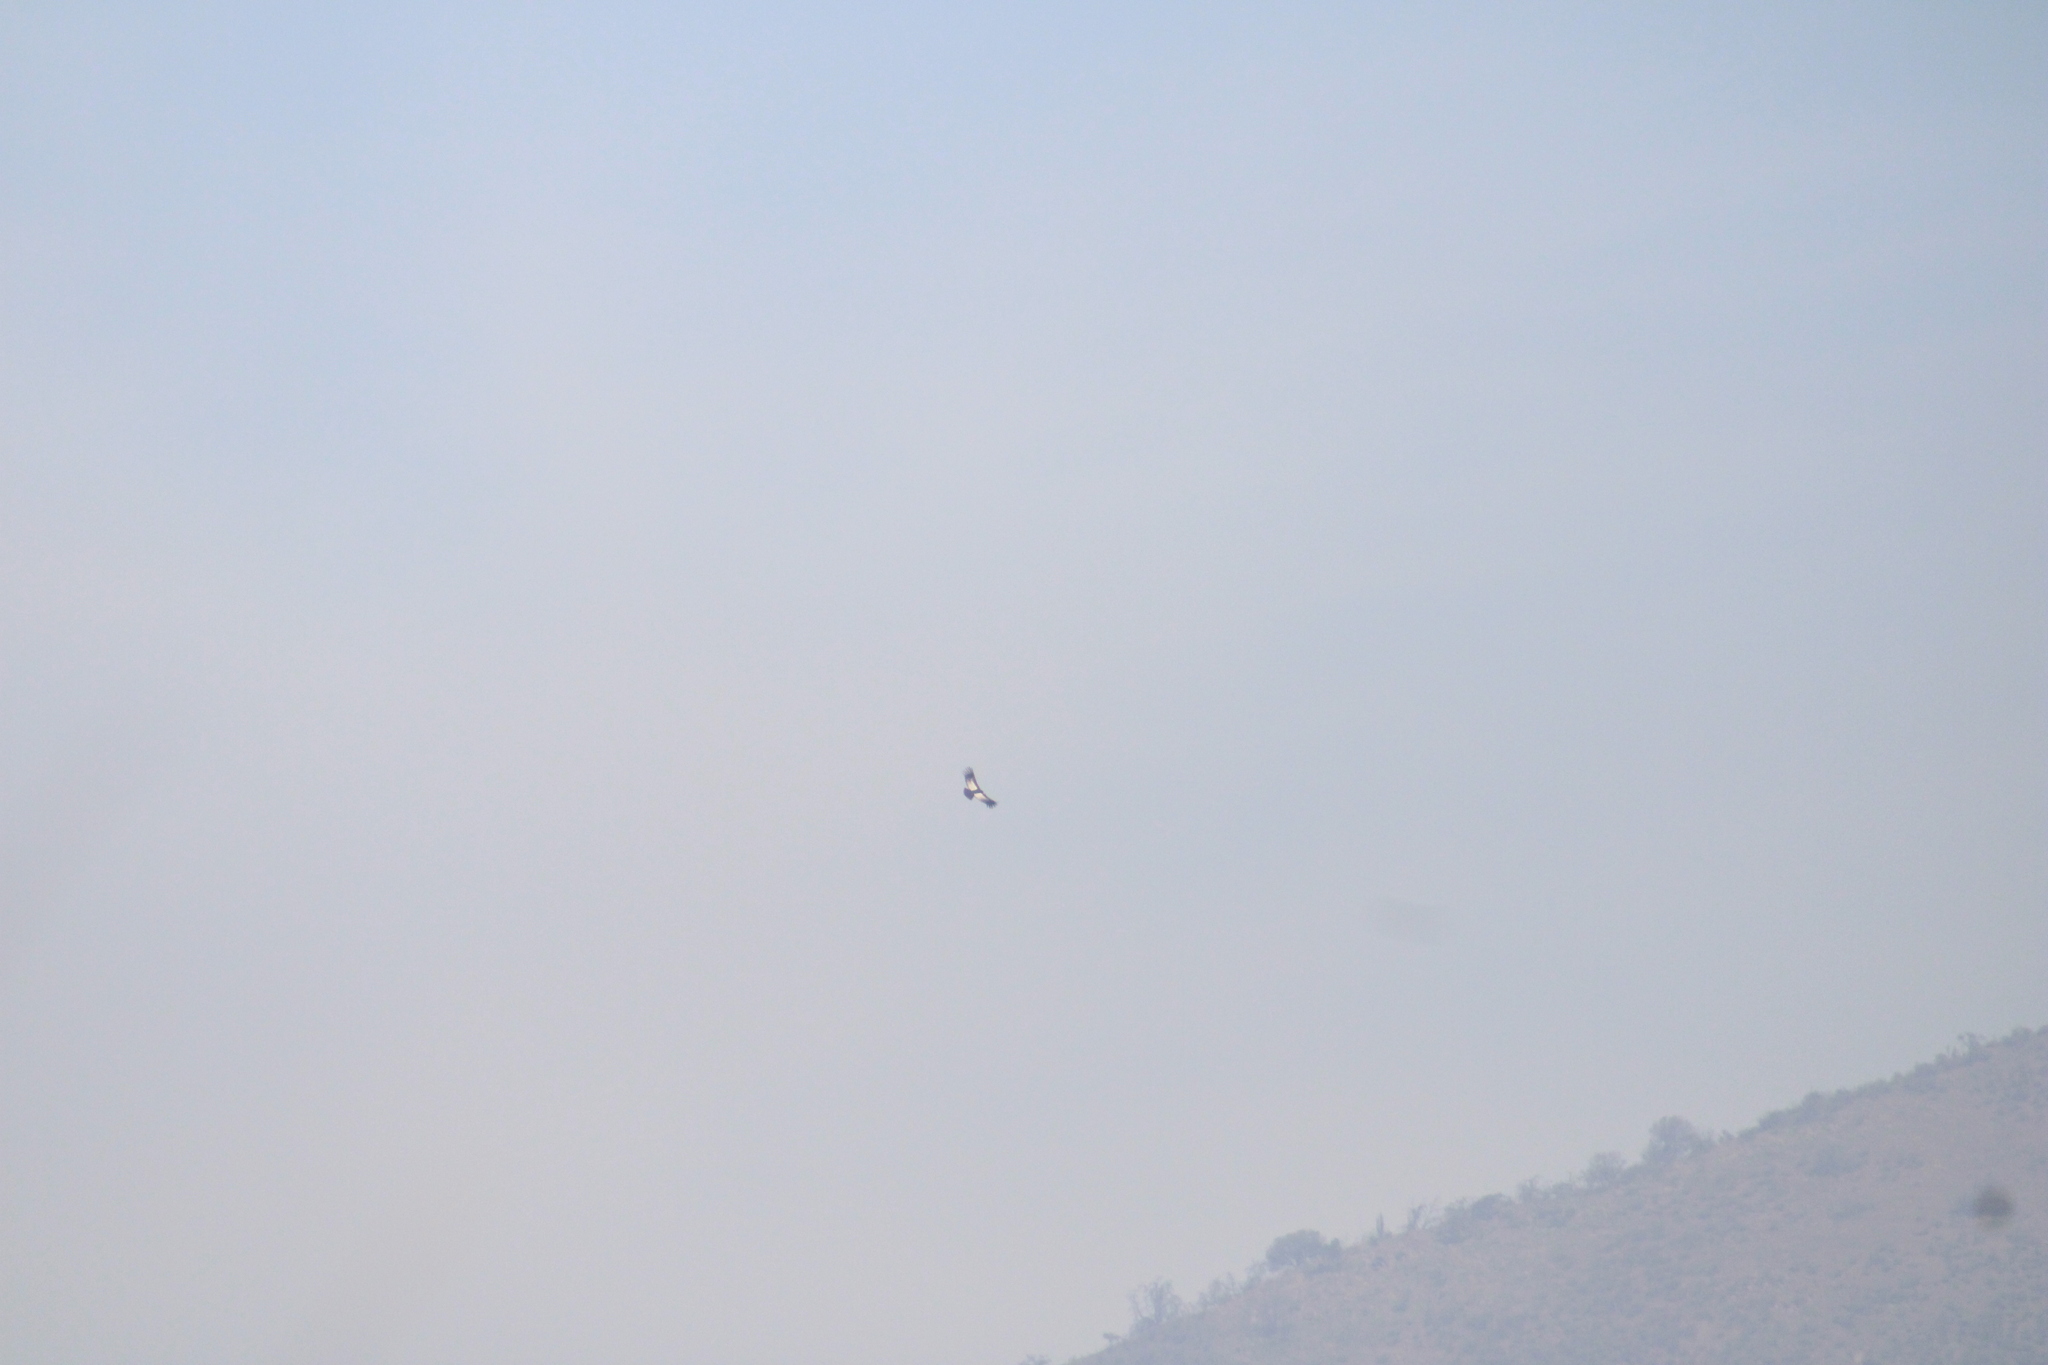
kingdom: Animalia
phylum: Chordata
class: Aves
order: Accipitriformes
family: Cathartidae
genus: Vultur
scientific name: Vultur gryphus
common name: Andean condor
